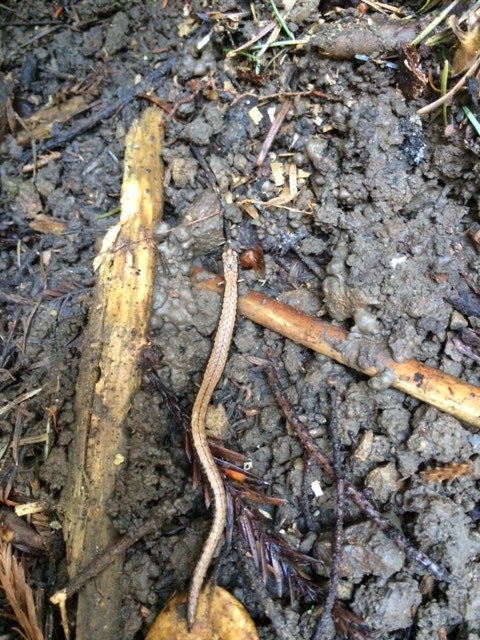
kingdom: Animalia
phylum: Chordata
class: Amphibia
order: Caudata
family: Plethodontidae
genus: Batrachoseps
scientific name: Batrachoseps attenuatus
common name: California slender salamander
